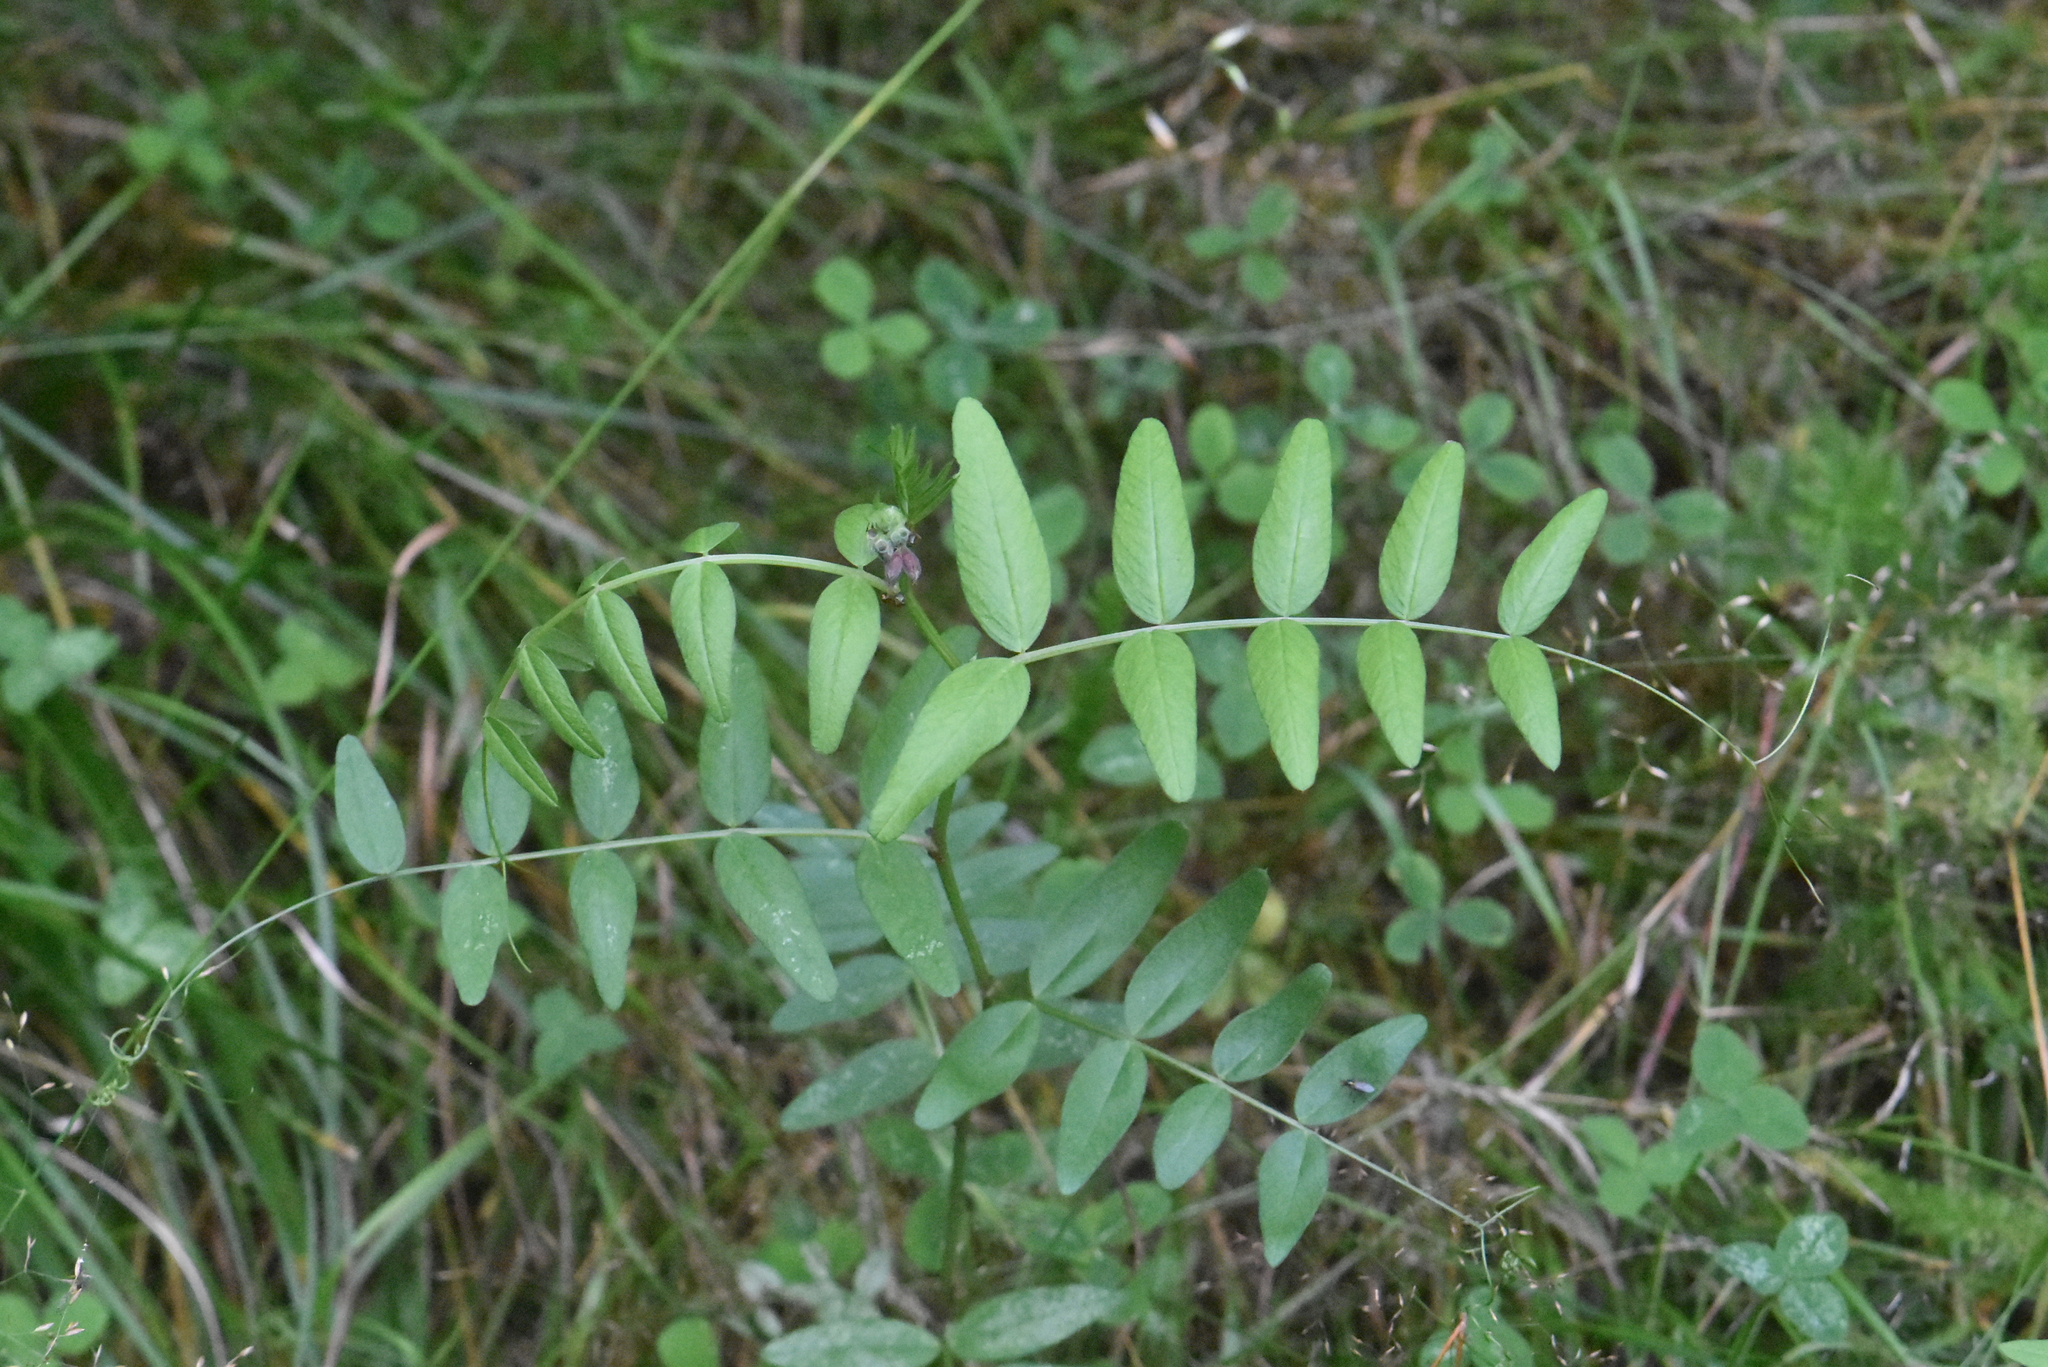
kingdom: Plantae
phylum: Tracheophyta
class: Magnoliopsida
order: Fabales
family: Fabaceae
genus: Vicia
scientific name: Vicia sepium
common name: Bush vetch
